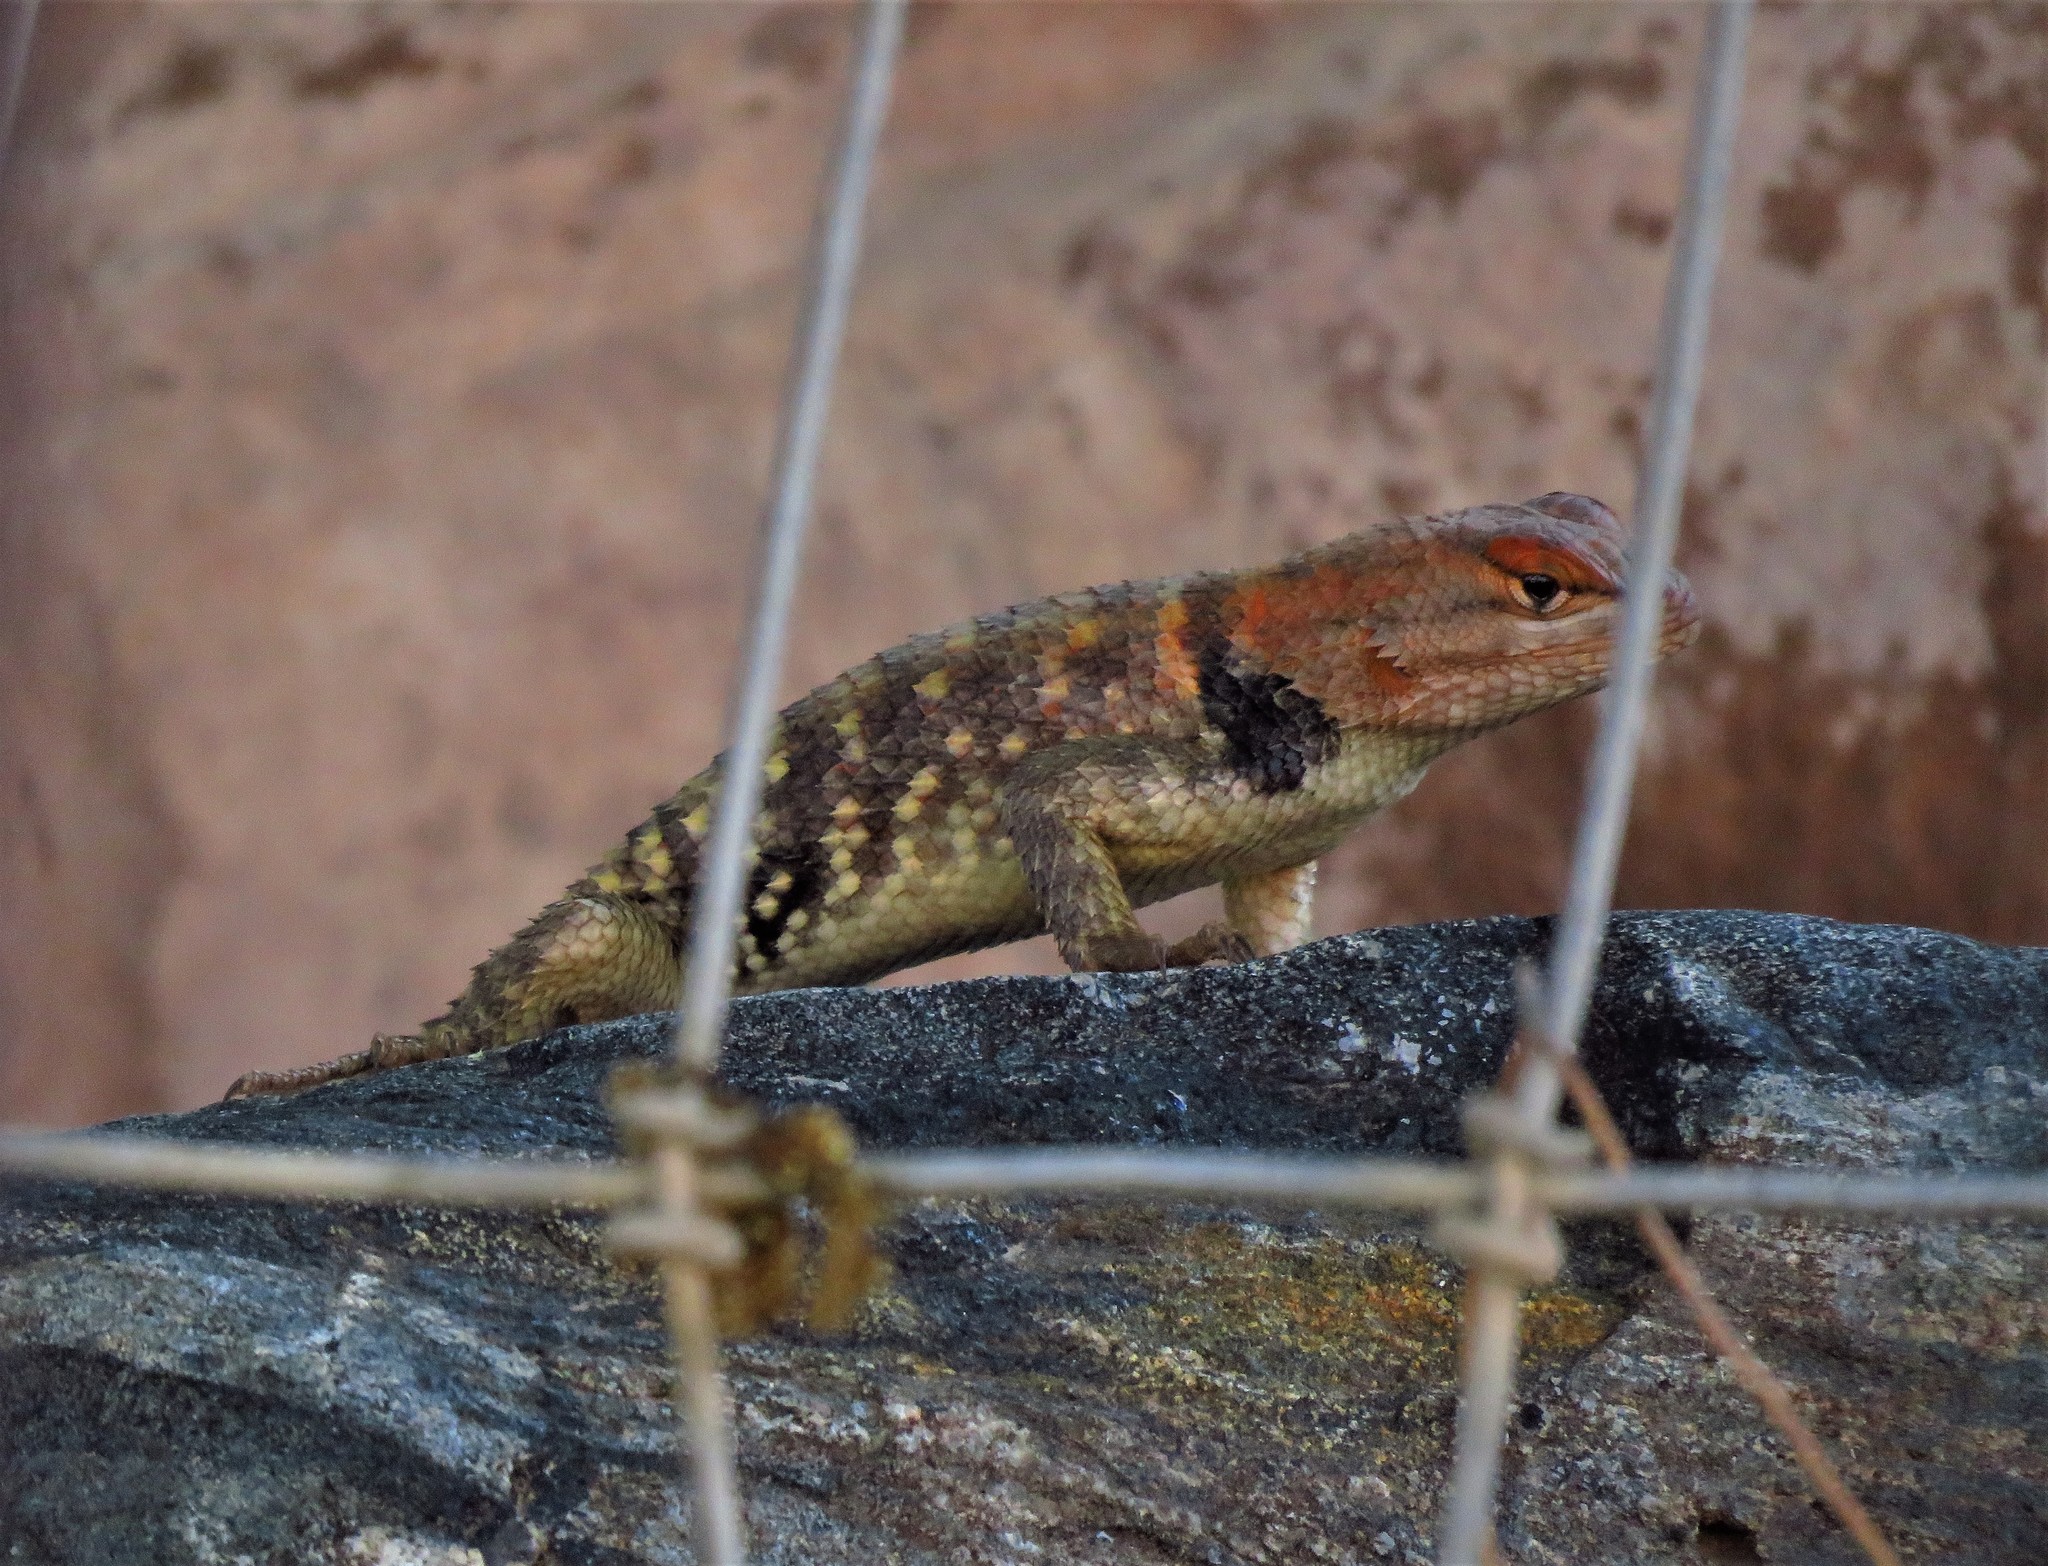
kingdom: Animalia
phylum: Chordata
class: Squamata
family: Phrynosomatidae
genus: Sceloporus
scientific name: Sceloporus uniformis
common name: Yellow-backed spiny lizard
